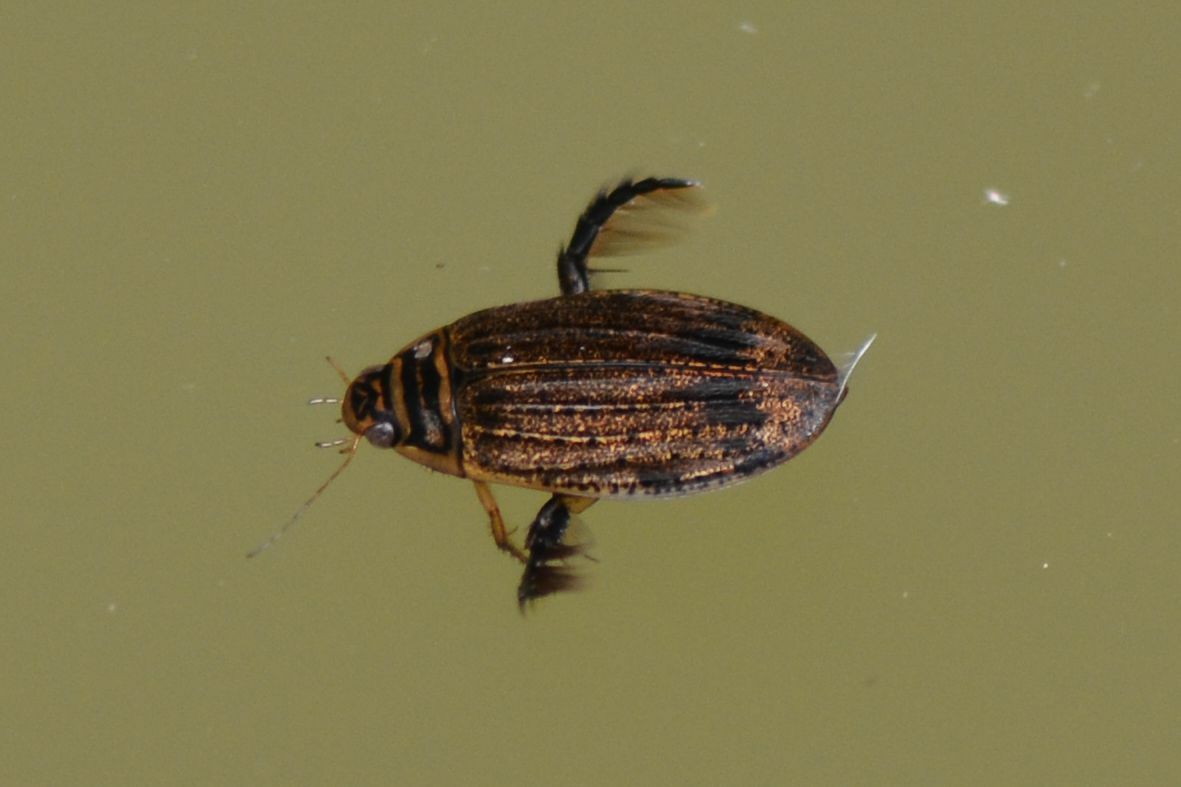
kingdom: Animalia
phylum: Arthropoda
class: Insecta
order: Coleoptera
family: Dytiscidae
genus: Acilius
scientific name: Acilius sulcatus
